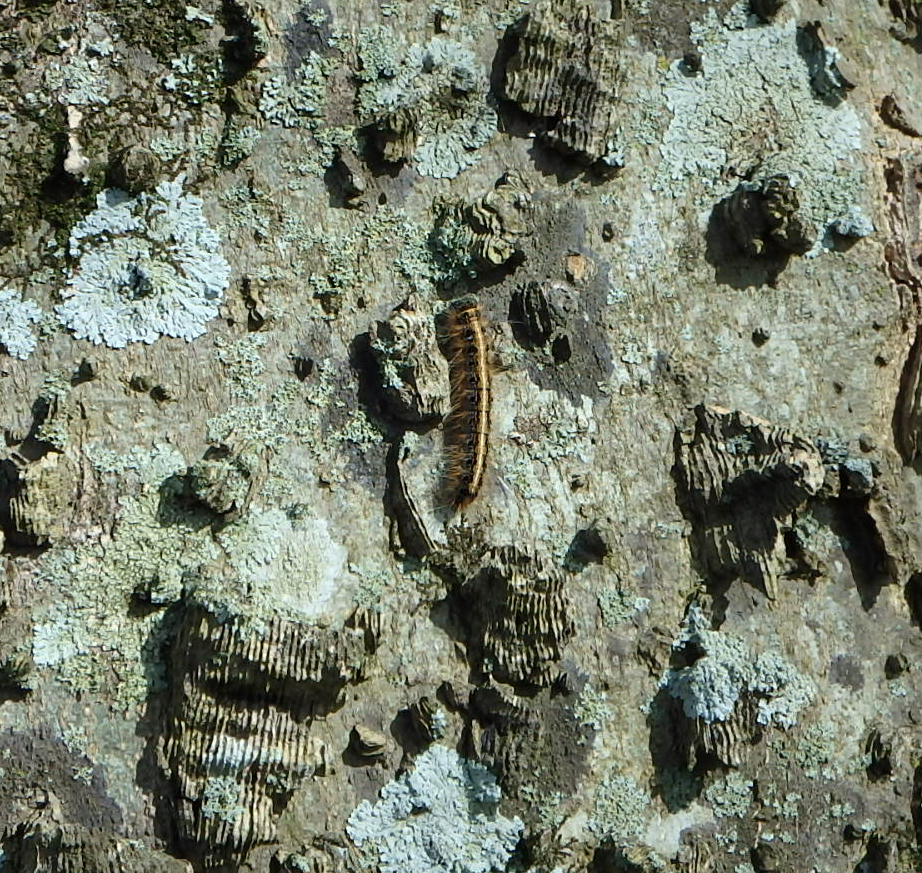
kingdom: Animalia
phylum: Arthropoda
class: Insecta
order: Lepidoptera
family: Lasiocampidae
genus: Malacosoma
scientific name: Malacosoma americana
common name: Eastern tent caterpillar moth
